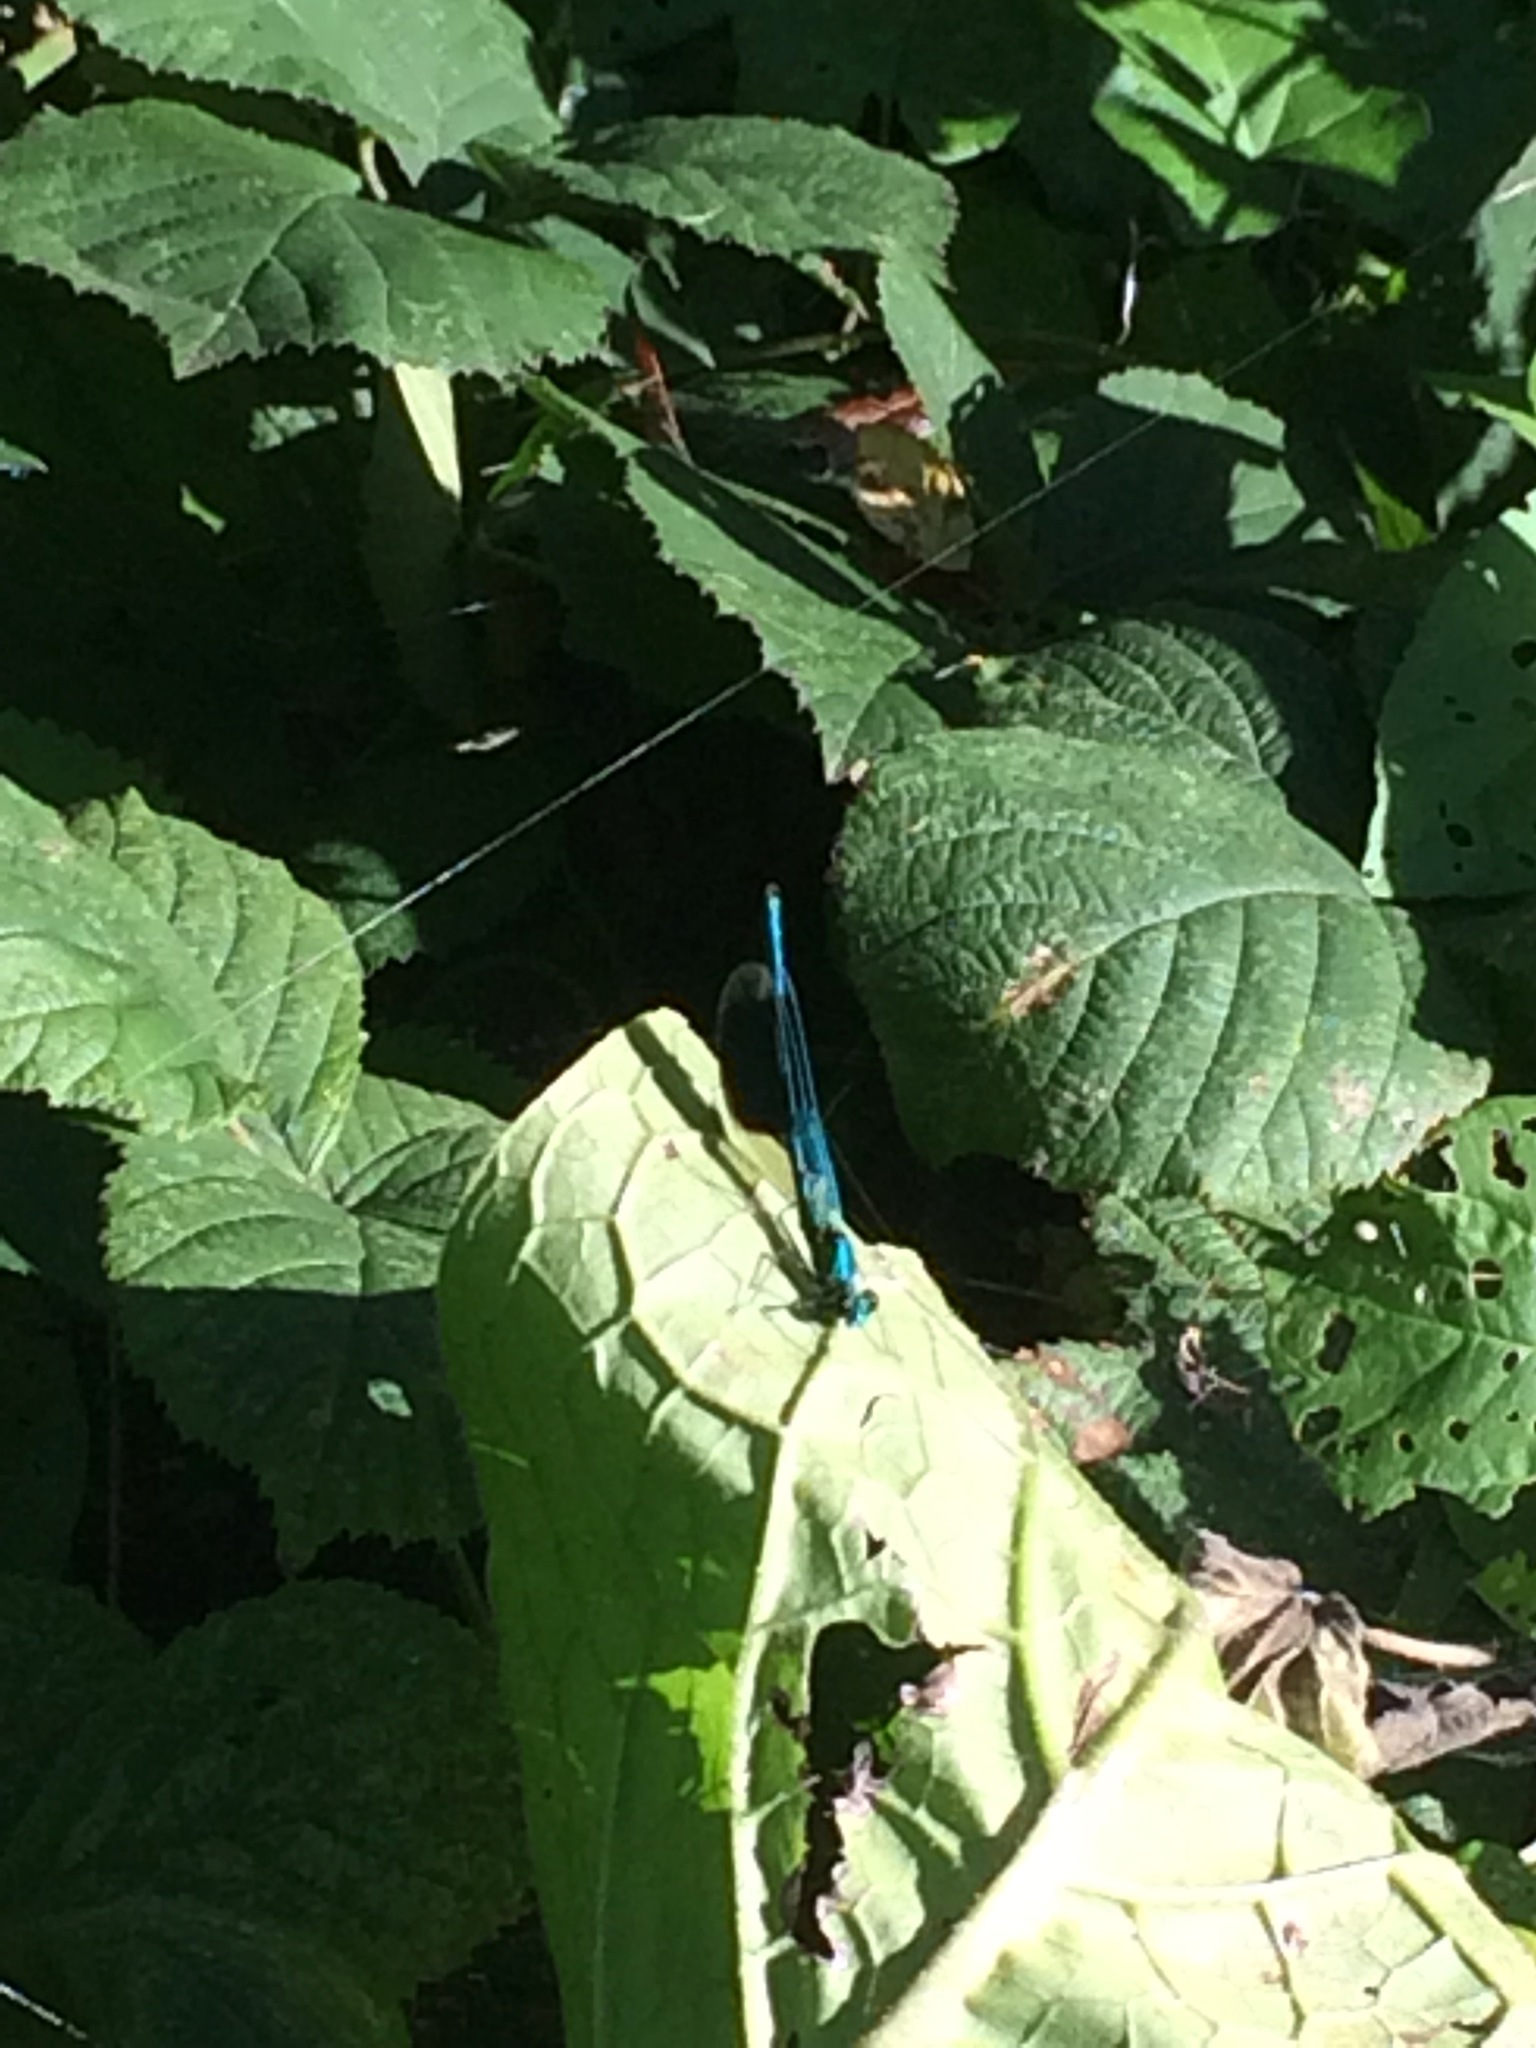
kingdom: Animalia
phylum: Arthropoda
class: Insecta
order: Odonata
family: Calopterygidae
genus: Calopteryx
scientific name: Calopteryx splendens
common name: Banded demoiselle
